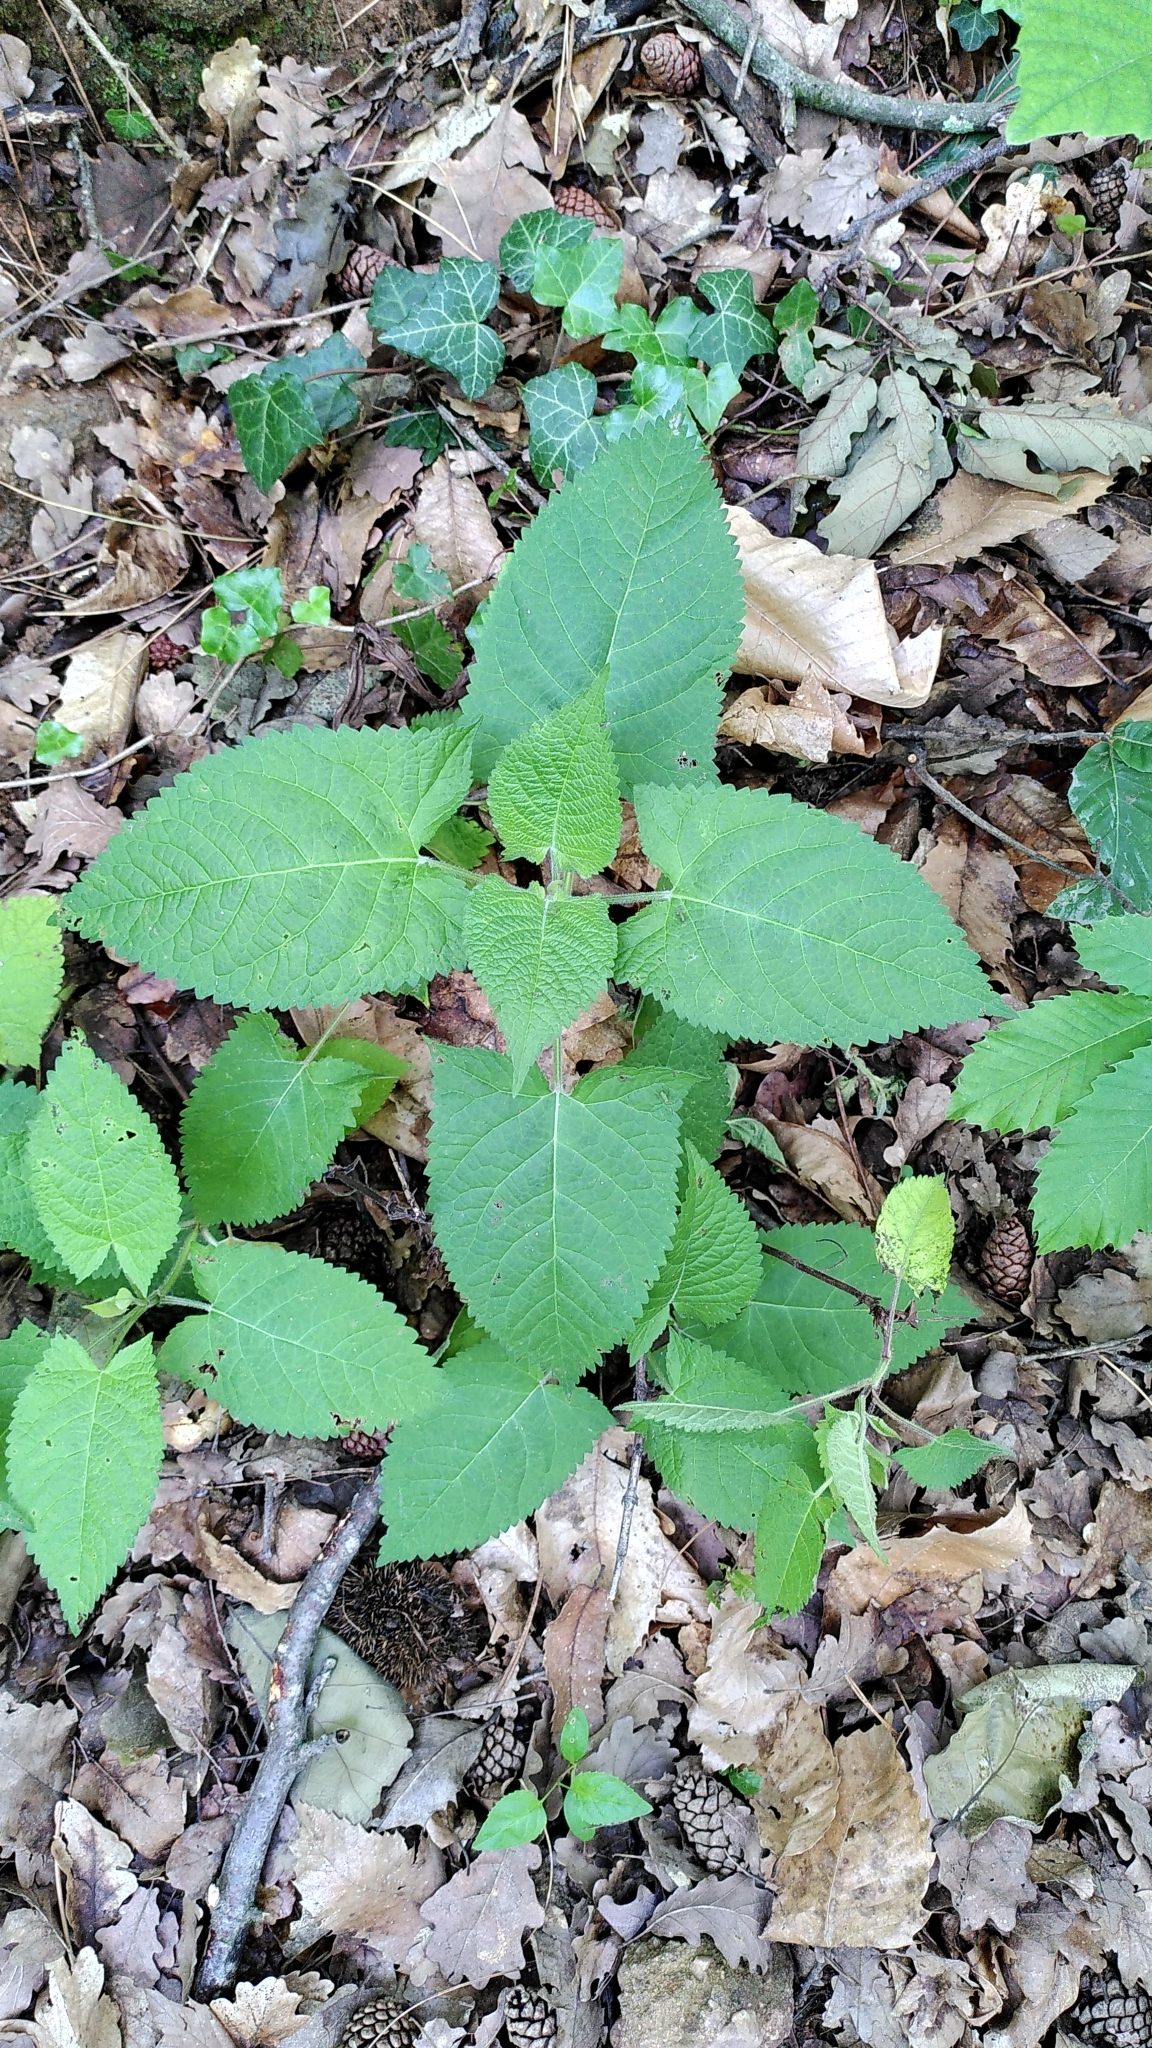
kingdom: Plantae
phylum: Tracheophyta
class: Magnoliopsida
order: Lamiales
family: Lamiaceae
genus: Salvia
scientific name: Salvia glutinosa
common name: Sticky clary
